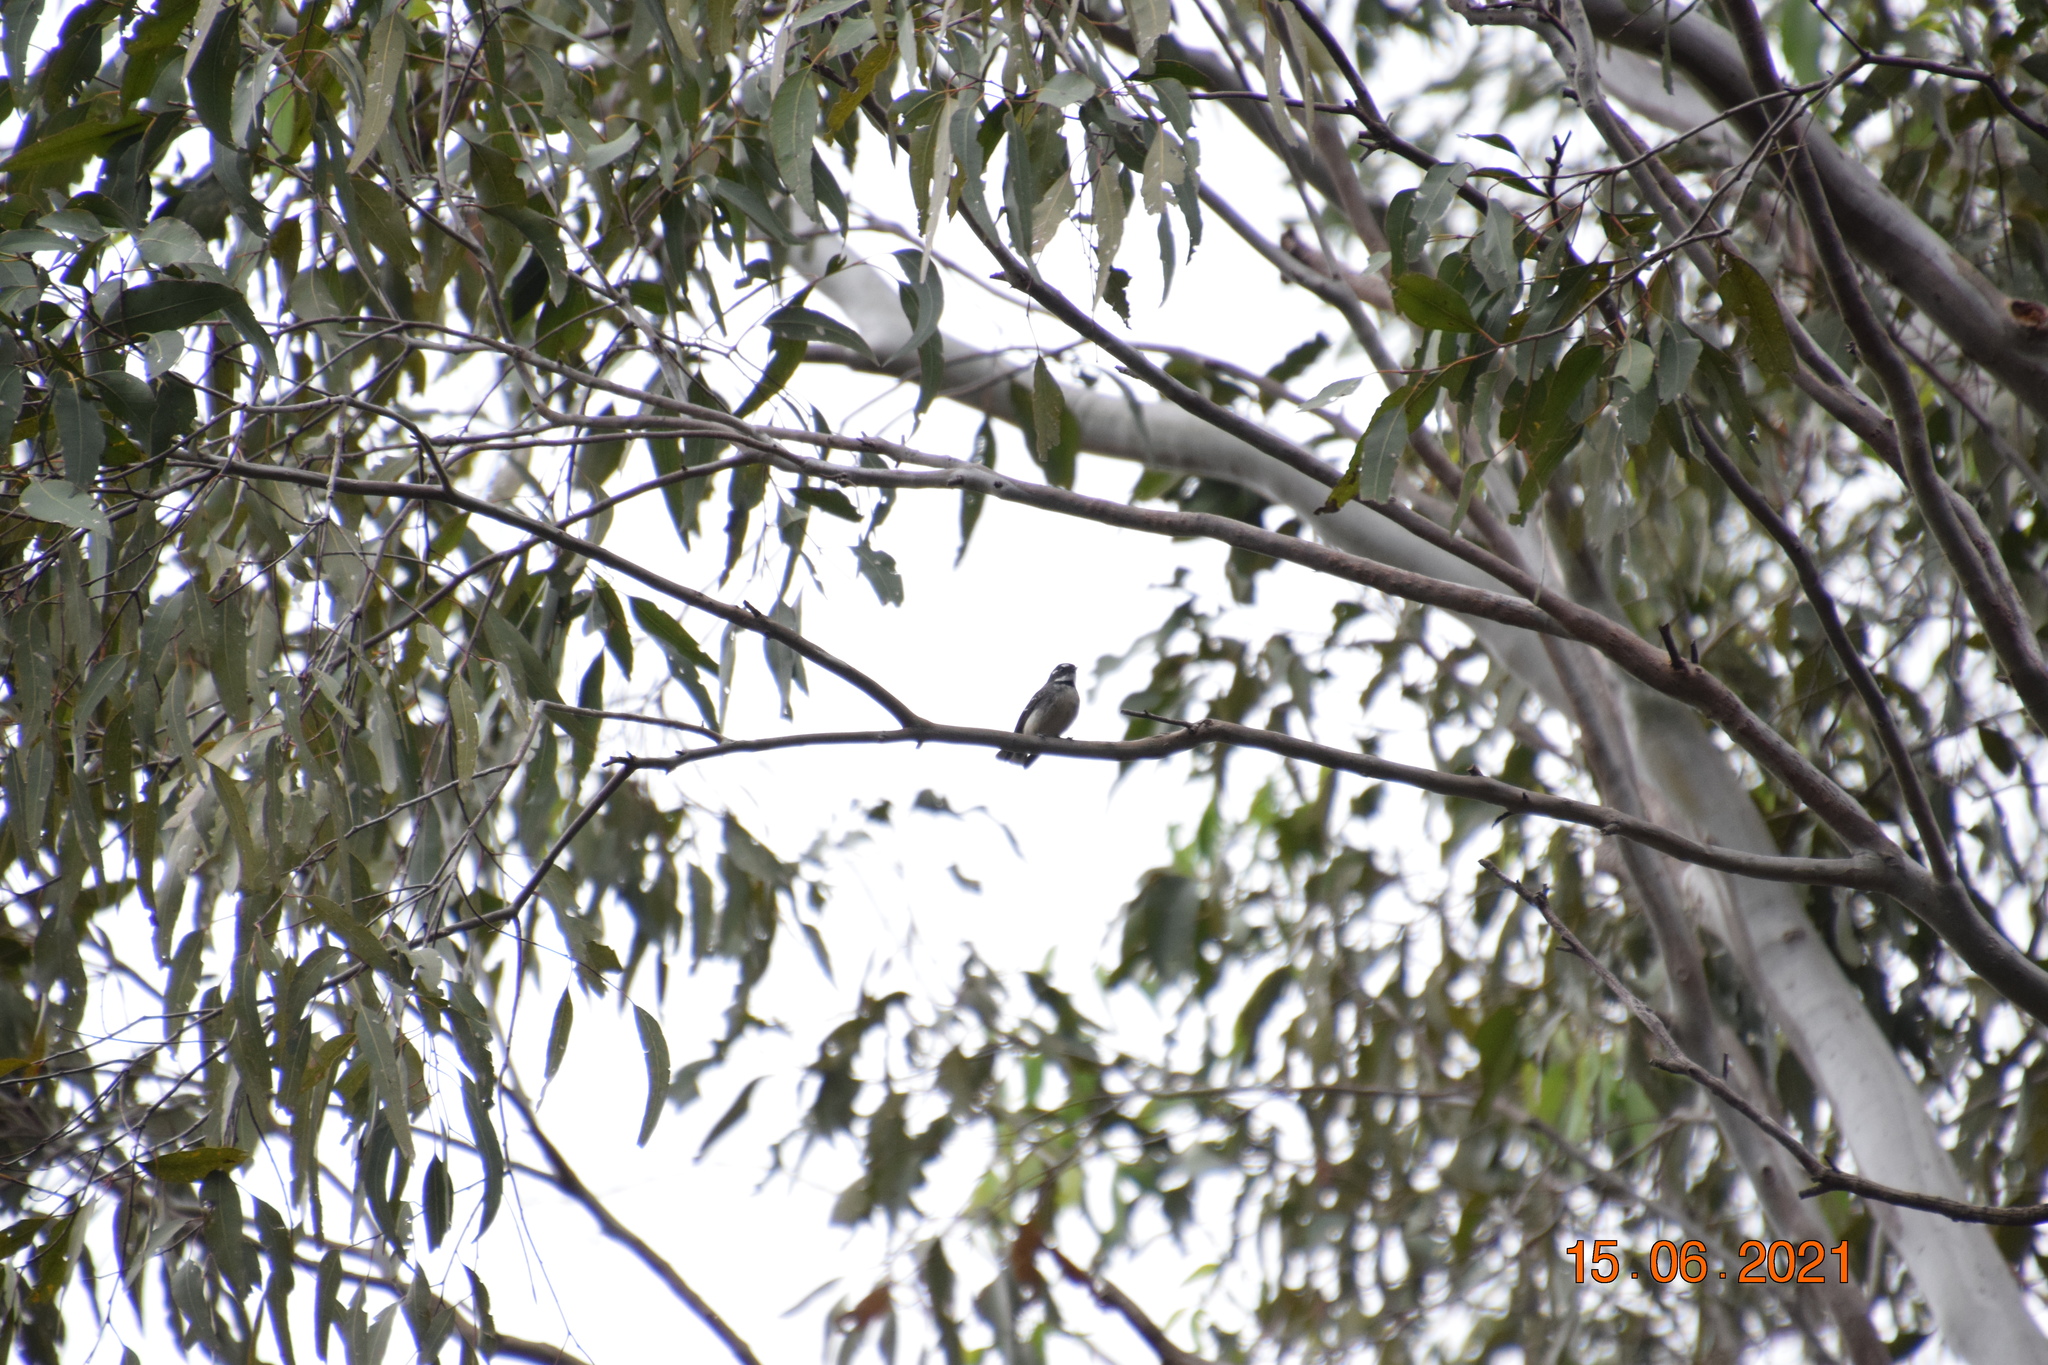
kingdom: Animalia
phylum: Chordata
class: Aves
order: Passeriformes
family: Rhipiduridae
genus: Rhipidura
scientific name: Rhipidura albiscapa
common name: Grey fantail
